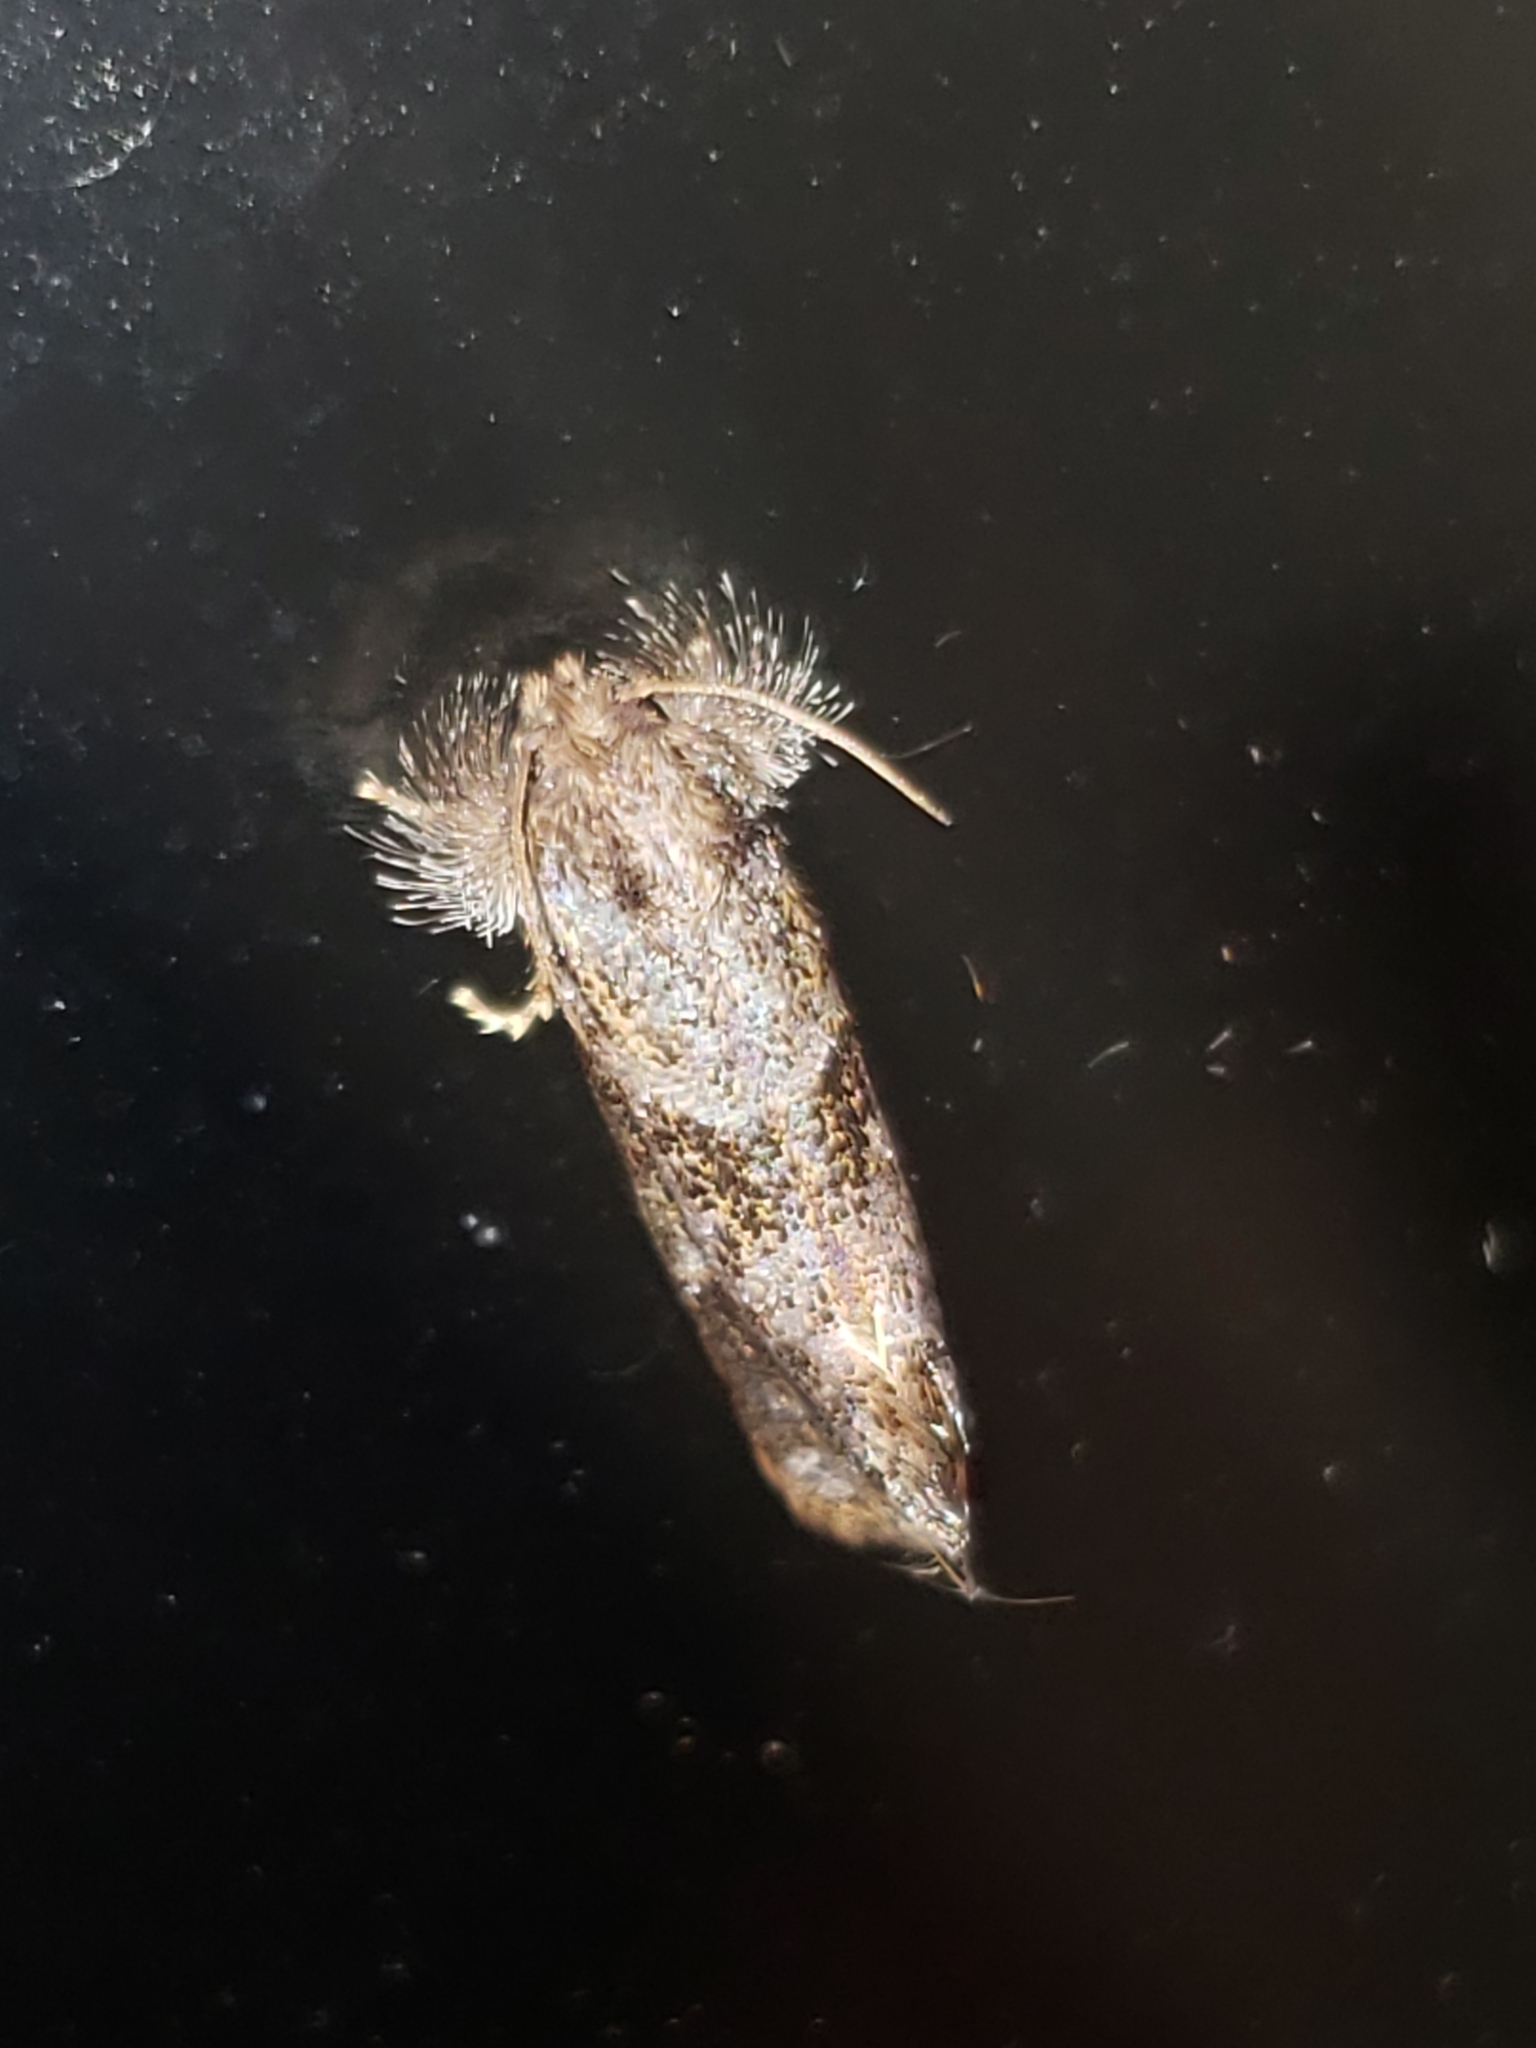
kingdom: Animalia
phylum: Arthropoda
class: Insecta
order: Lepidoptera
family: Tineidae
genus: Acrolophus
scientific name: Acrolophus panamae
